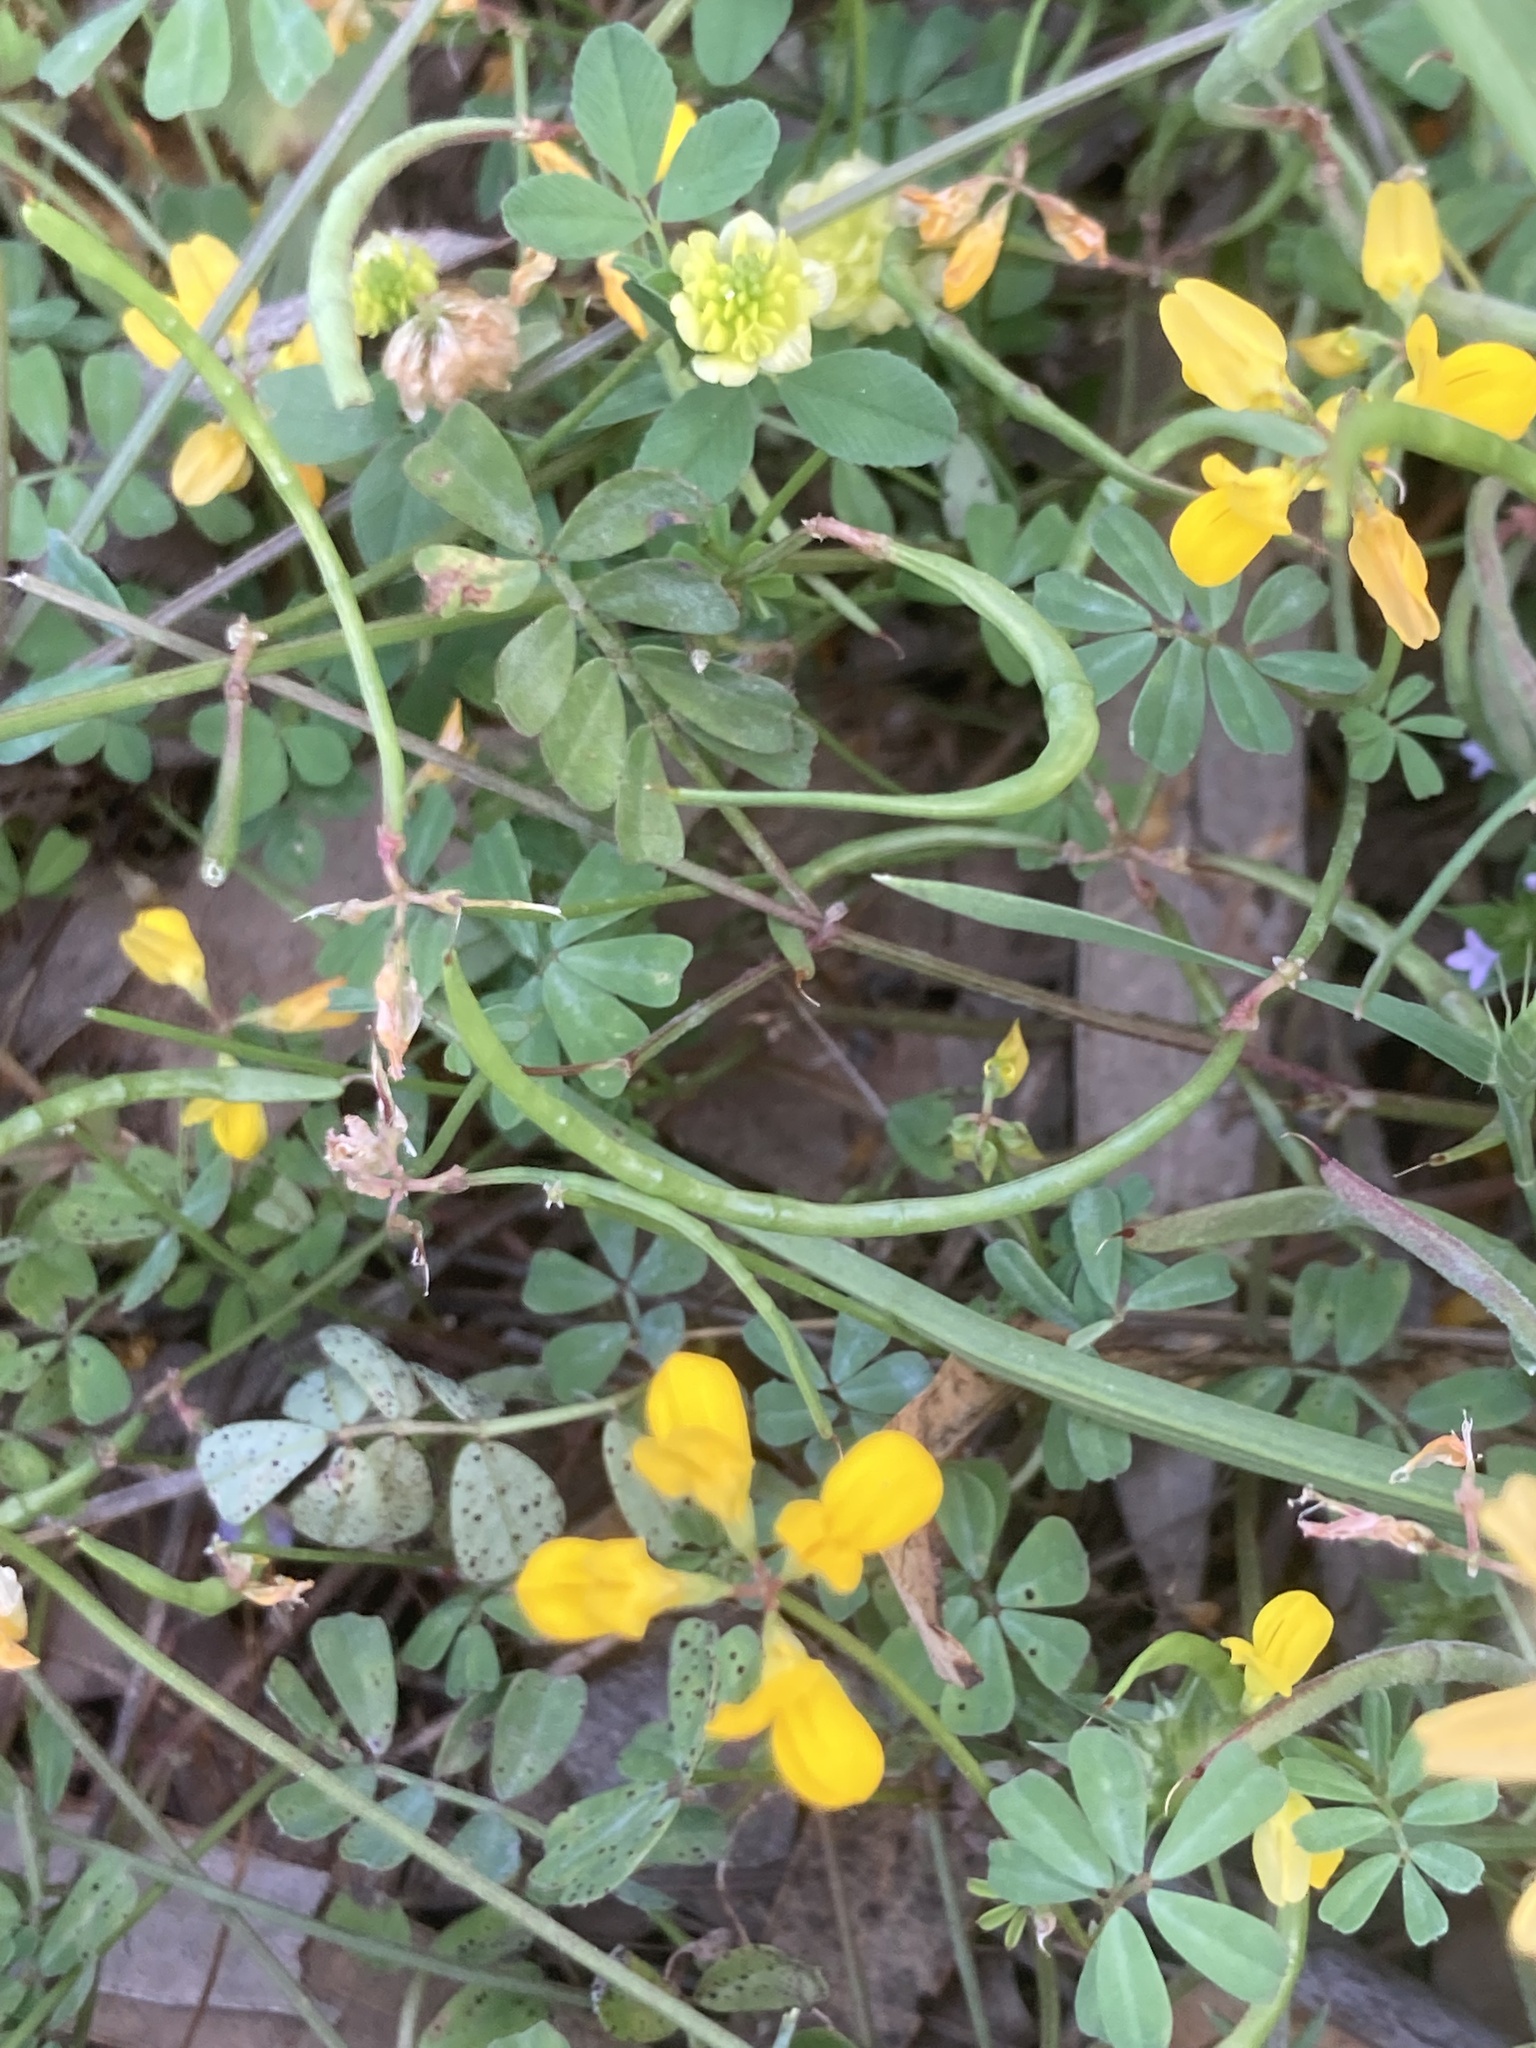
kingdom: Plantae
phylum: Tracheophyta
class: Magnoliopsida
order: Fabales
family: Fabaceae
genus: Coronilla
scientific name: Coronilla securidaca
